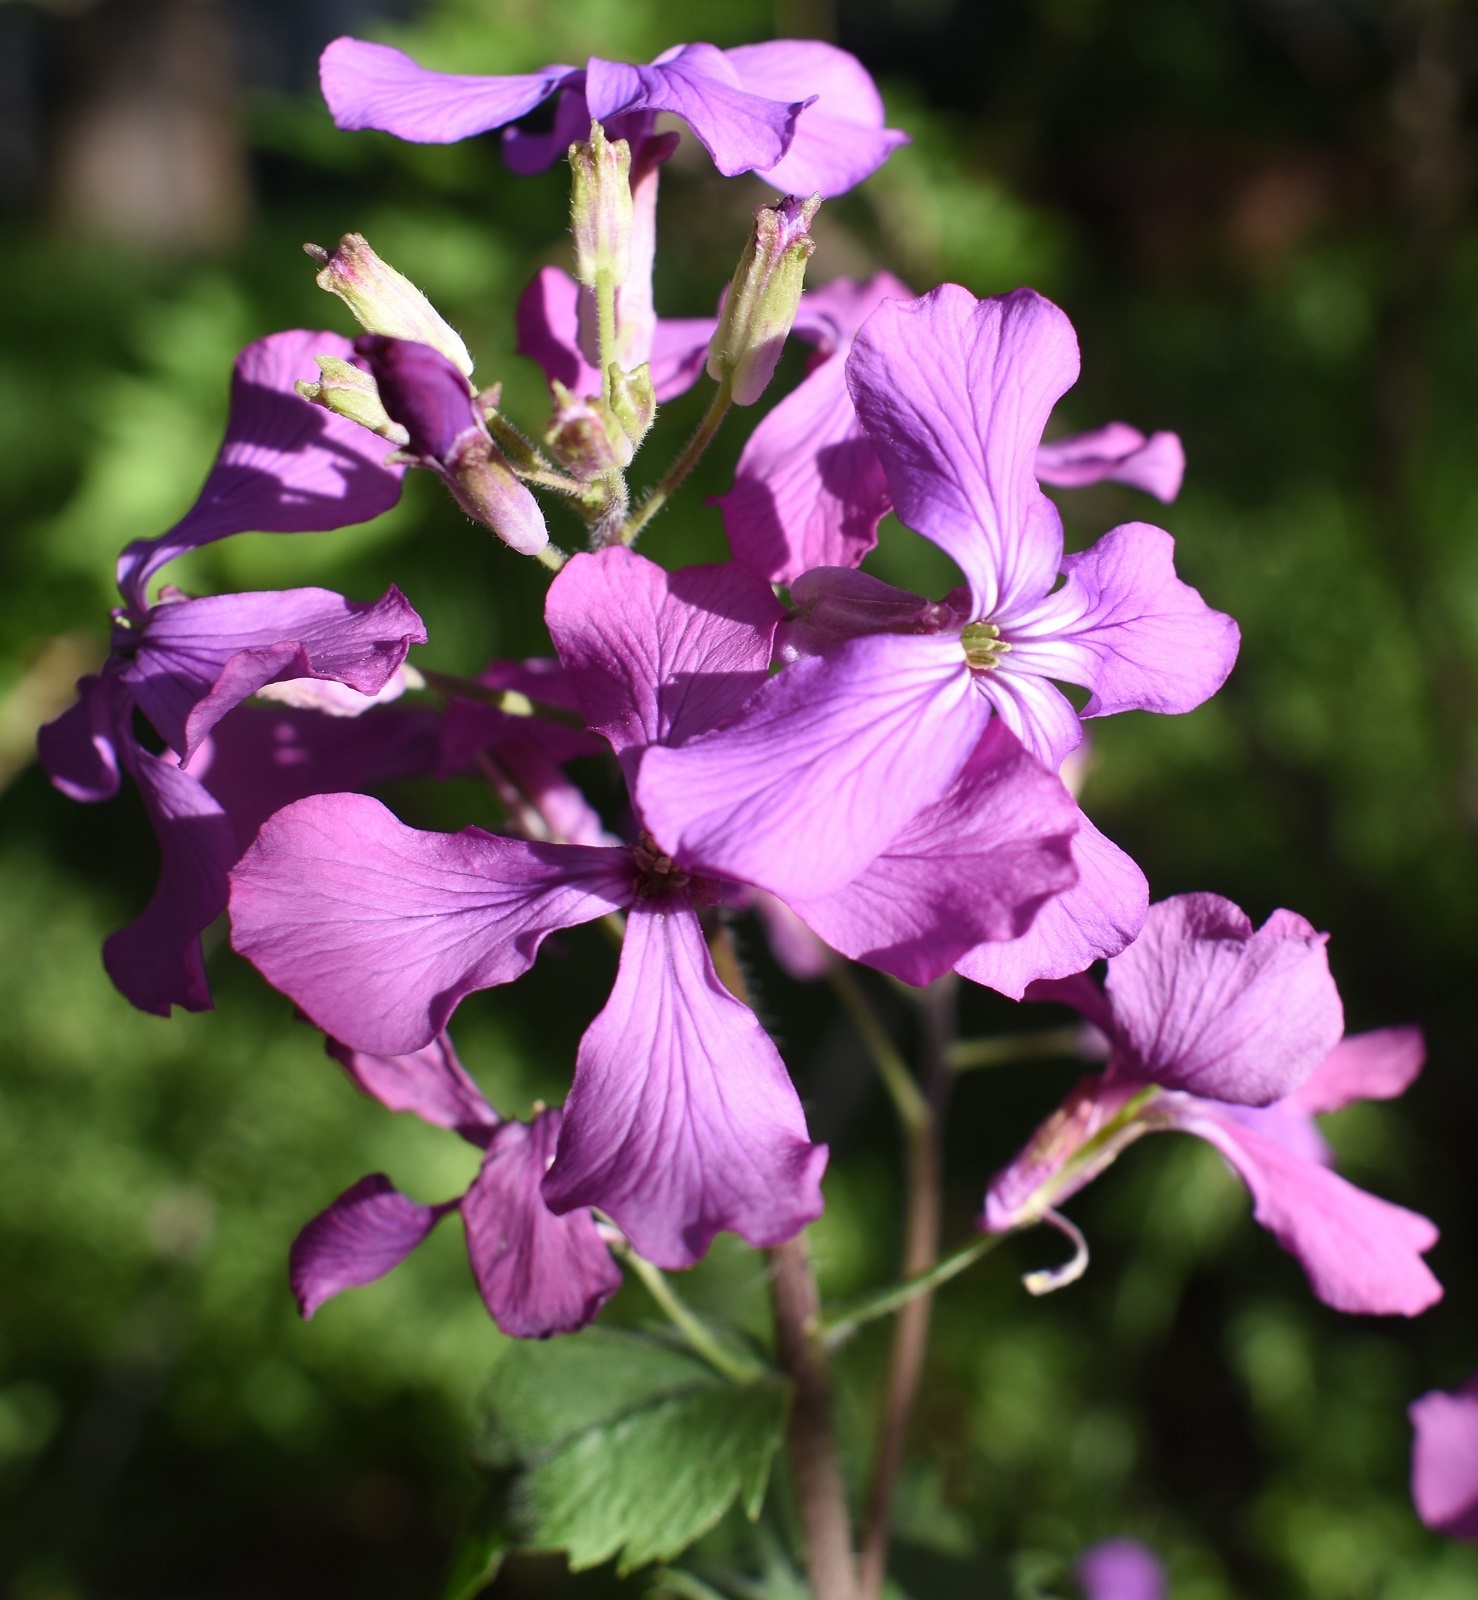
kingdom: Plantae
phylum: Tracheophyta
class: Magnoliopsida
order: Brassicales
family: Brassicaceae
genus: Lunaria
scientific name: Lunaria annua
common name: Honesty
